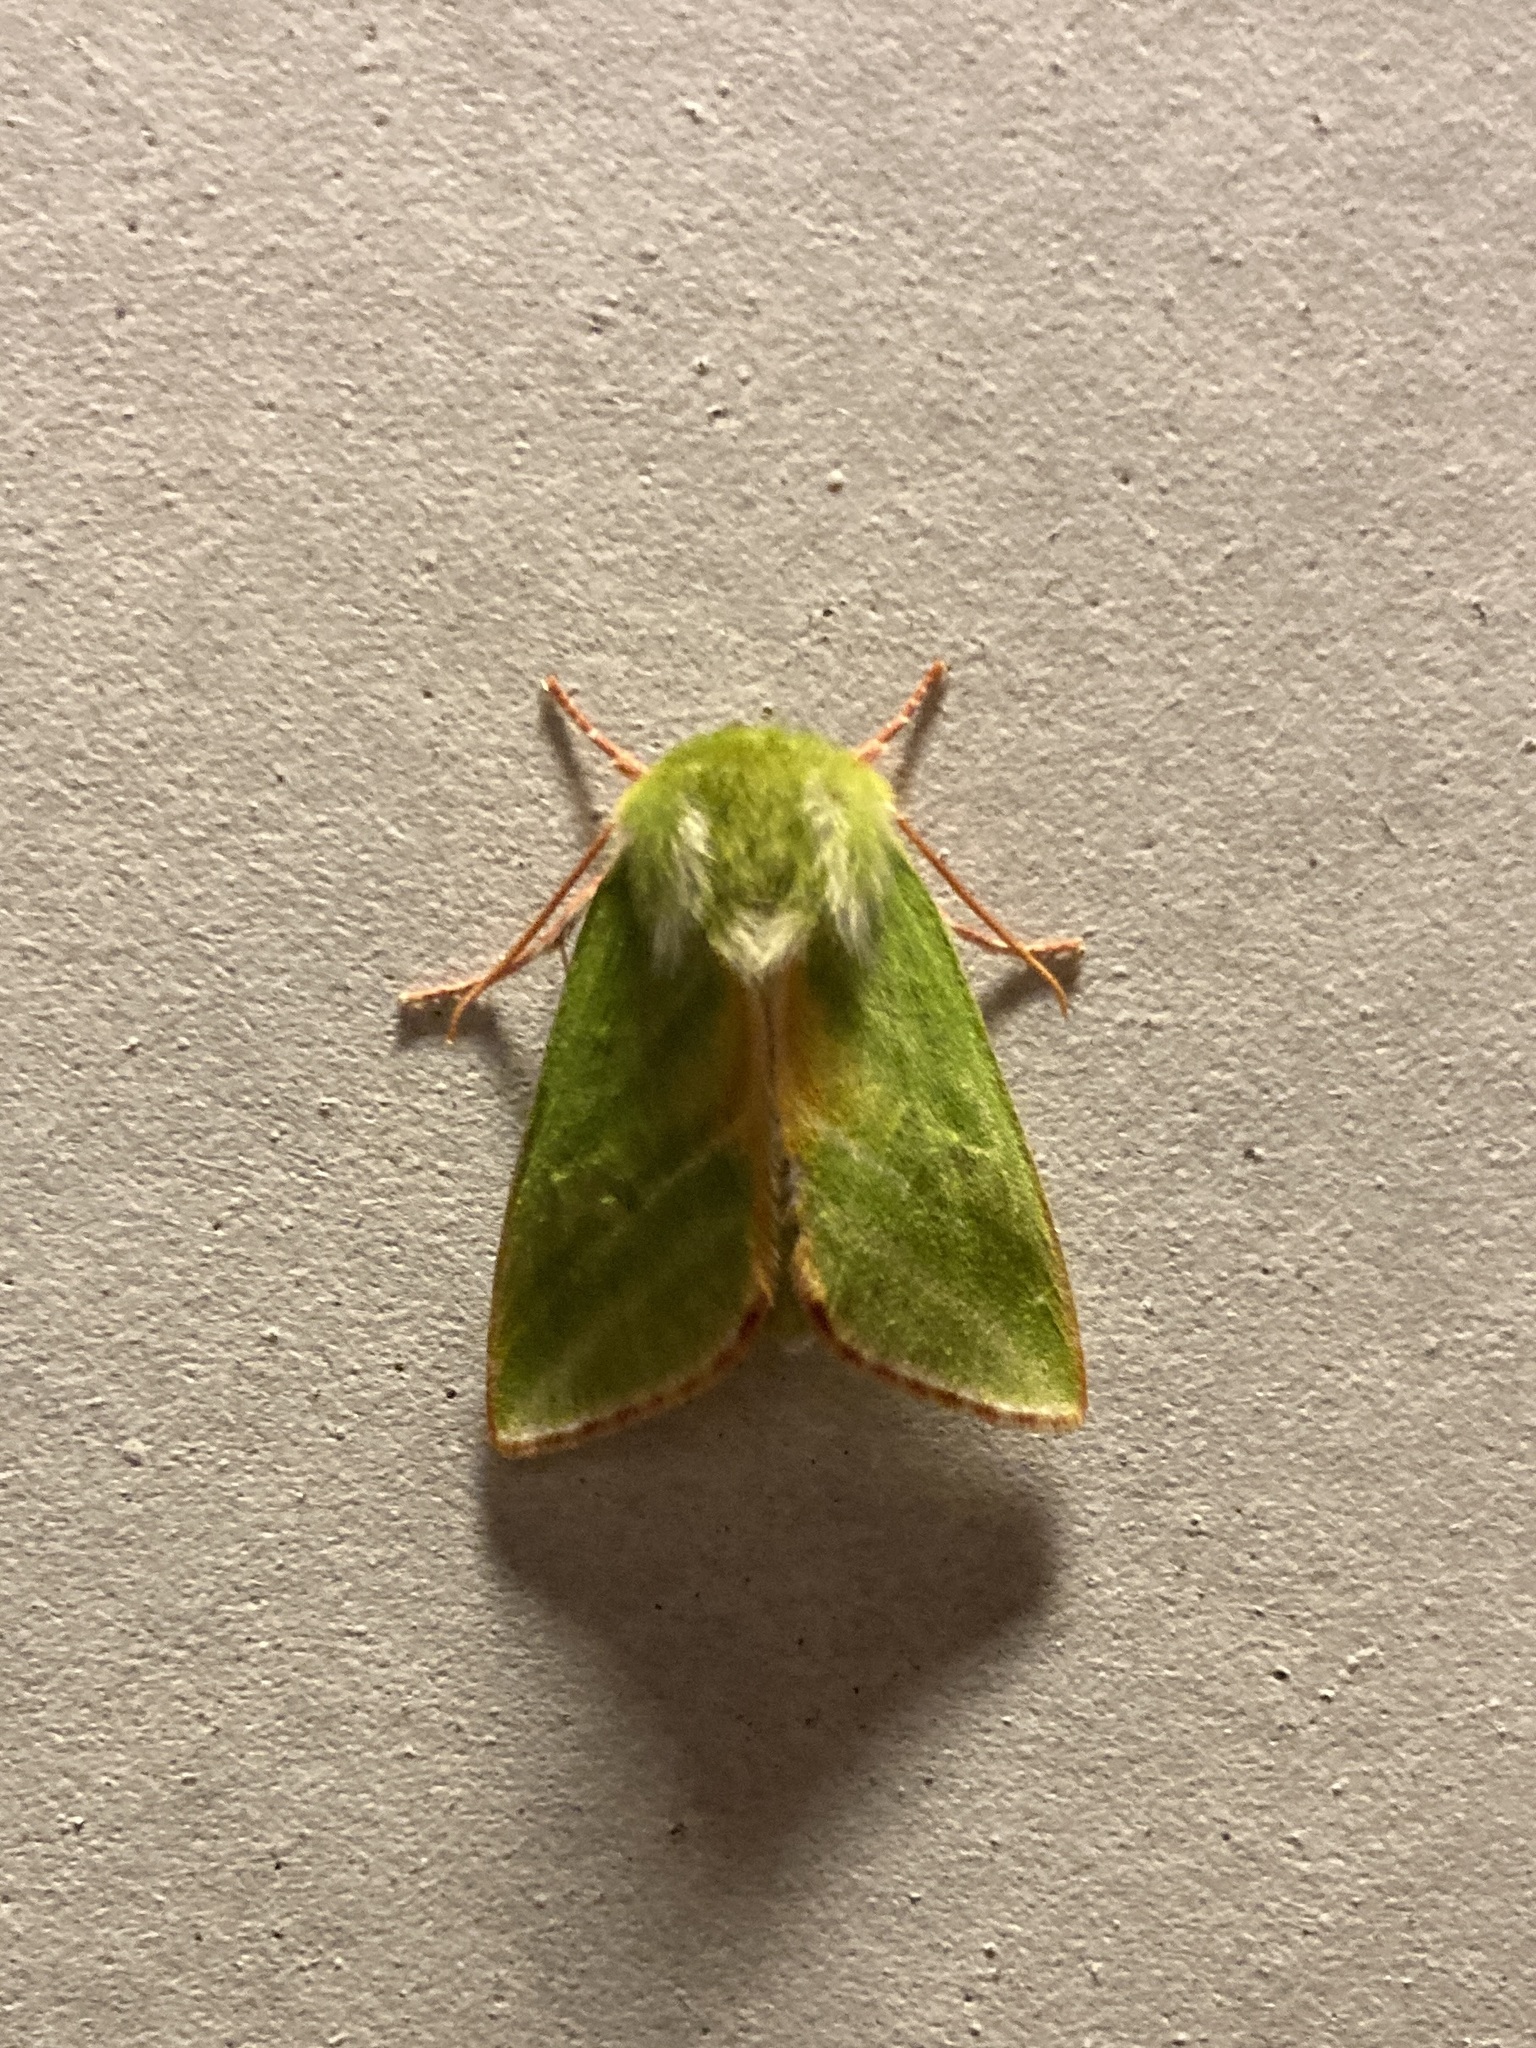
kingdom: Animalia
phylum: Arthropoda
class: Insecta
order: Lepidoptera
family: Nolidae
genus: Pseudoips
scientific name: Pseudoips prasinana
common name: Green silver-lines
